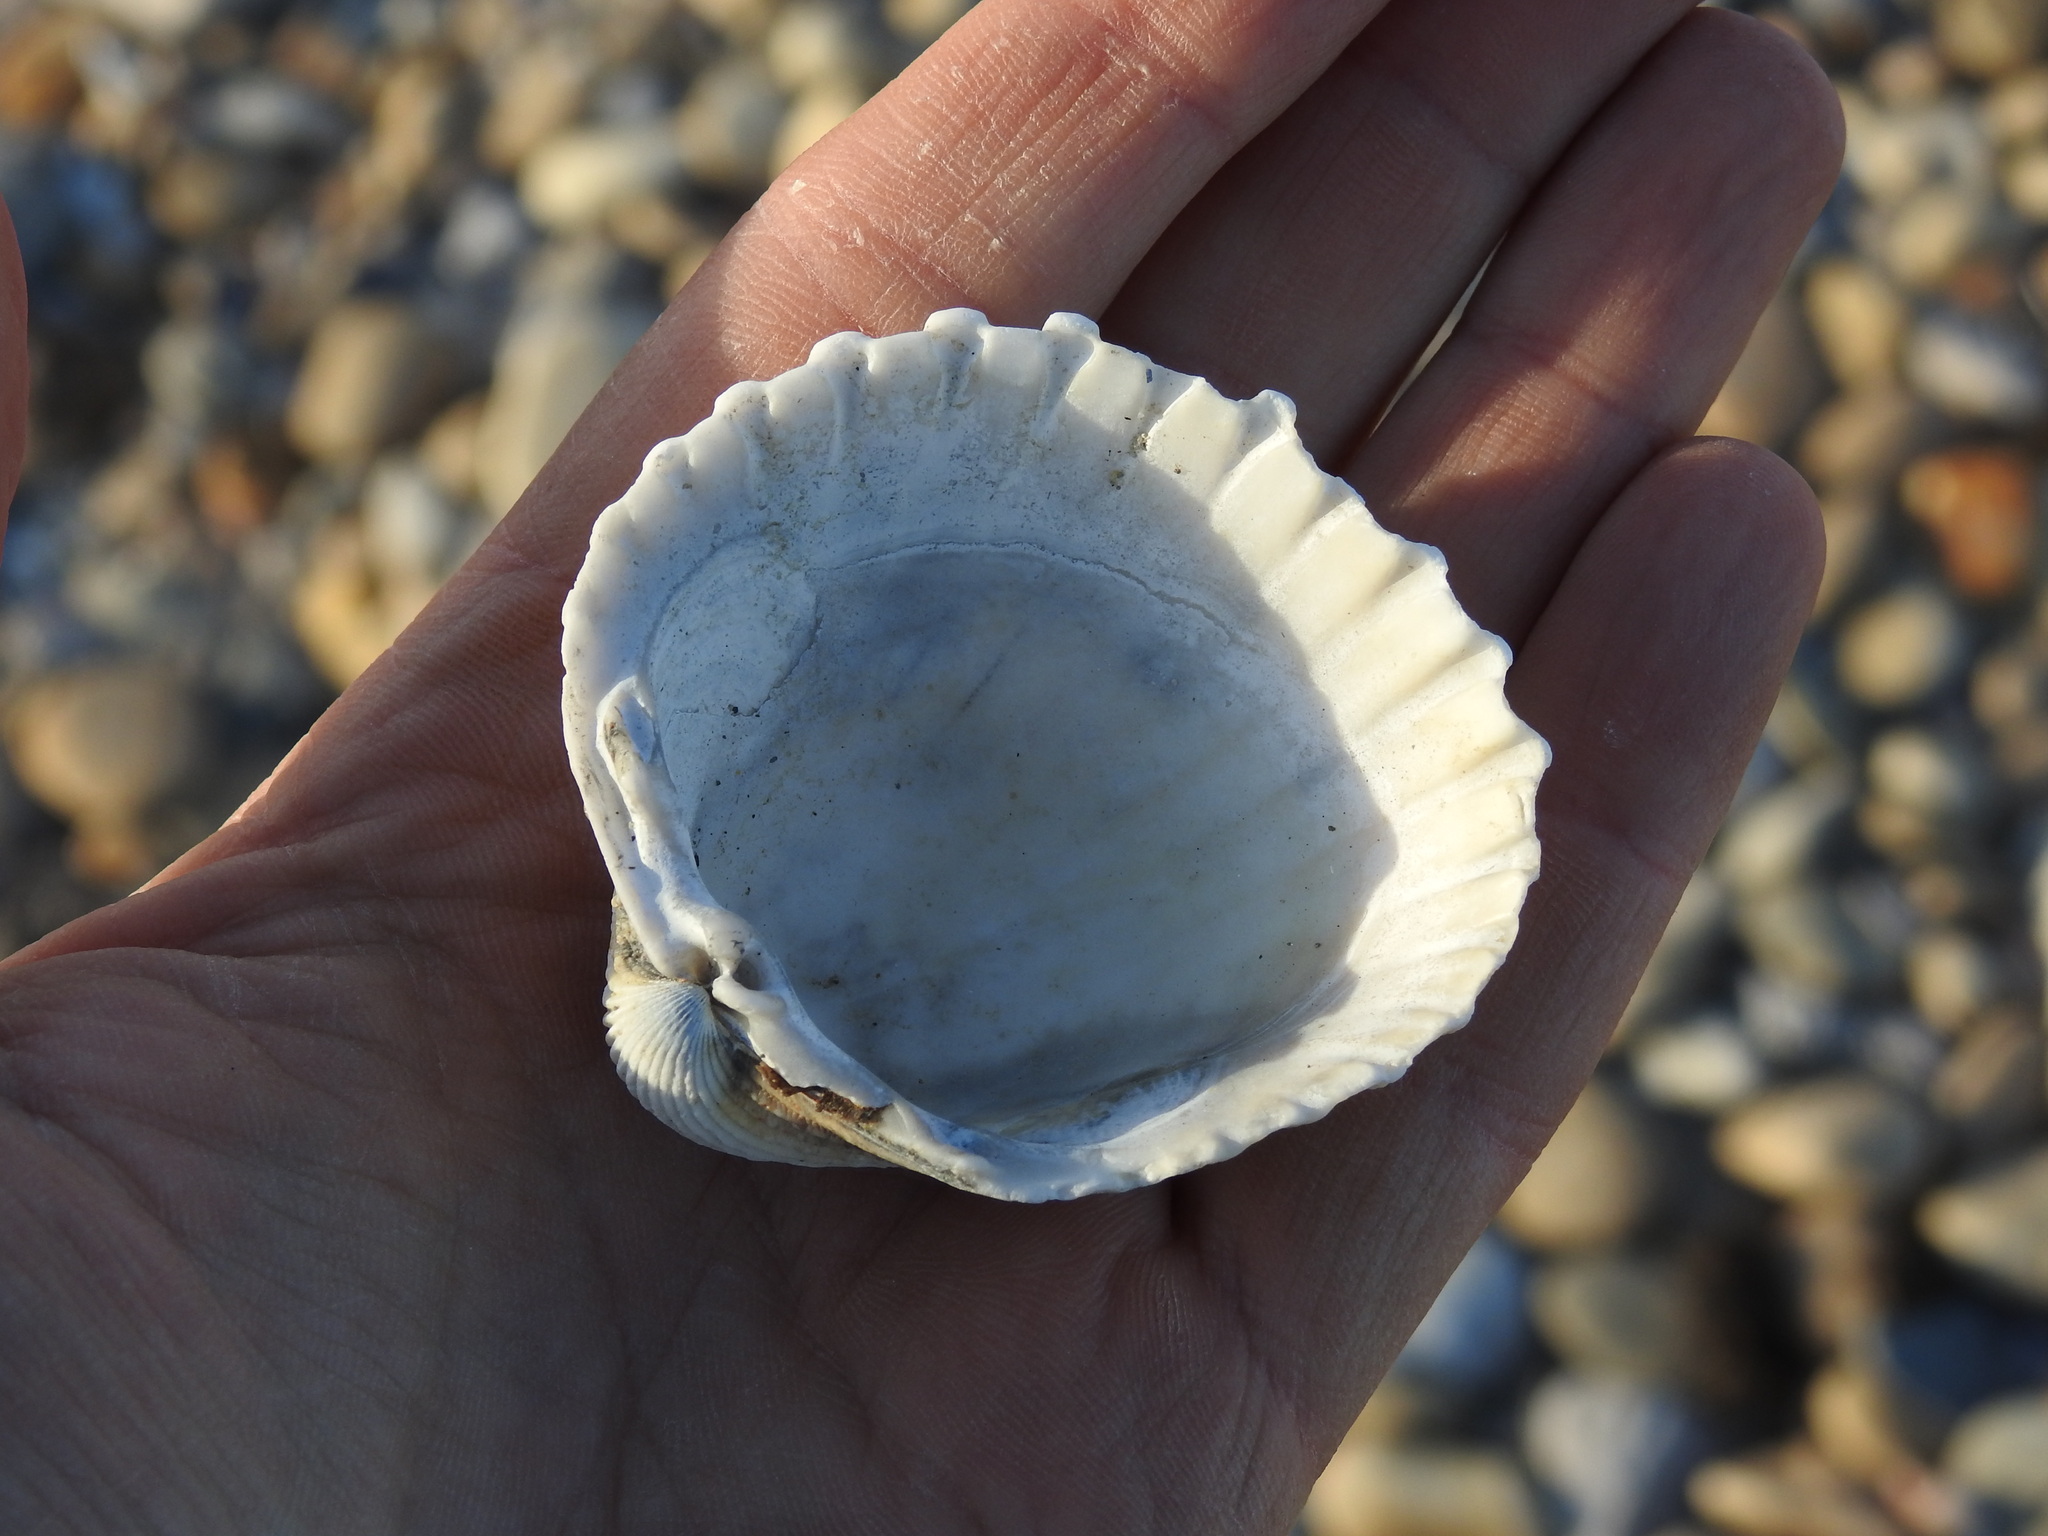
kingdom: Animalia
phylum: Mollusca
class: Bivalvia
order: Cardiida
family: Cardiidae
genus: Acanthocardia
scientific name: Acanthocardia echinata
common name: Prickly cockle
